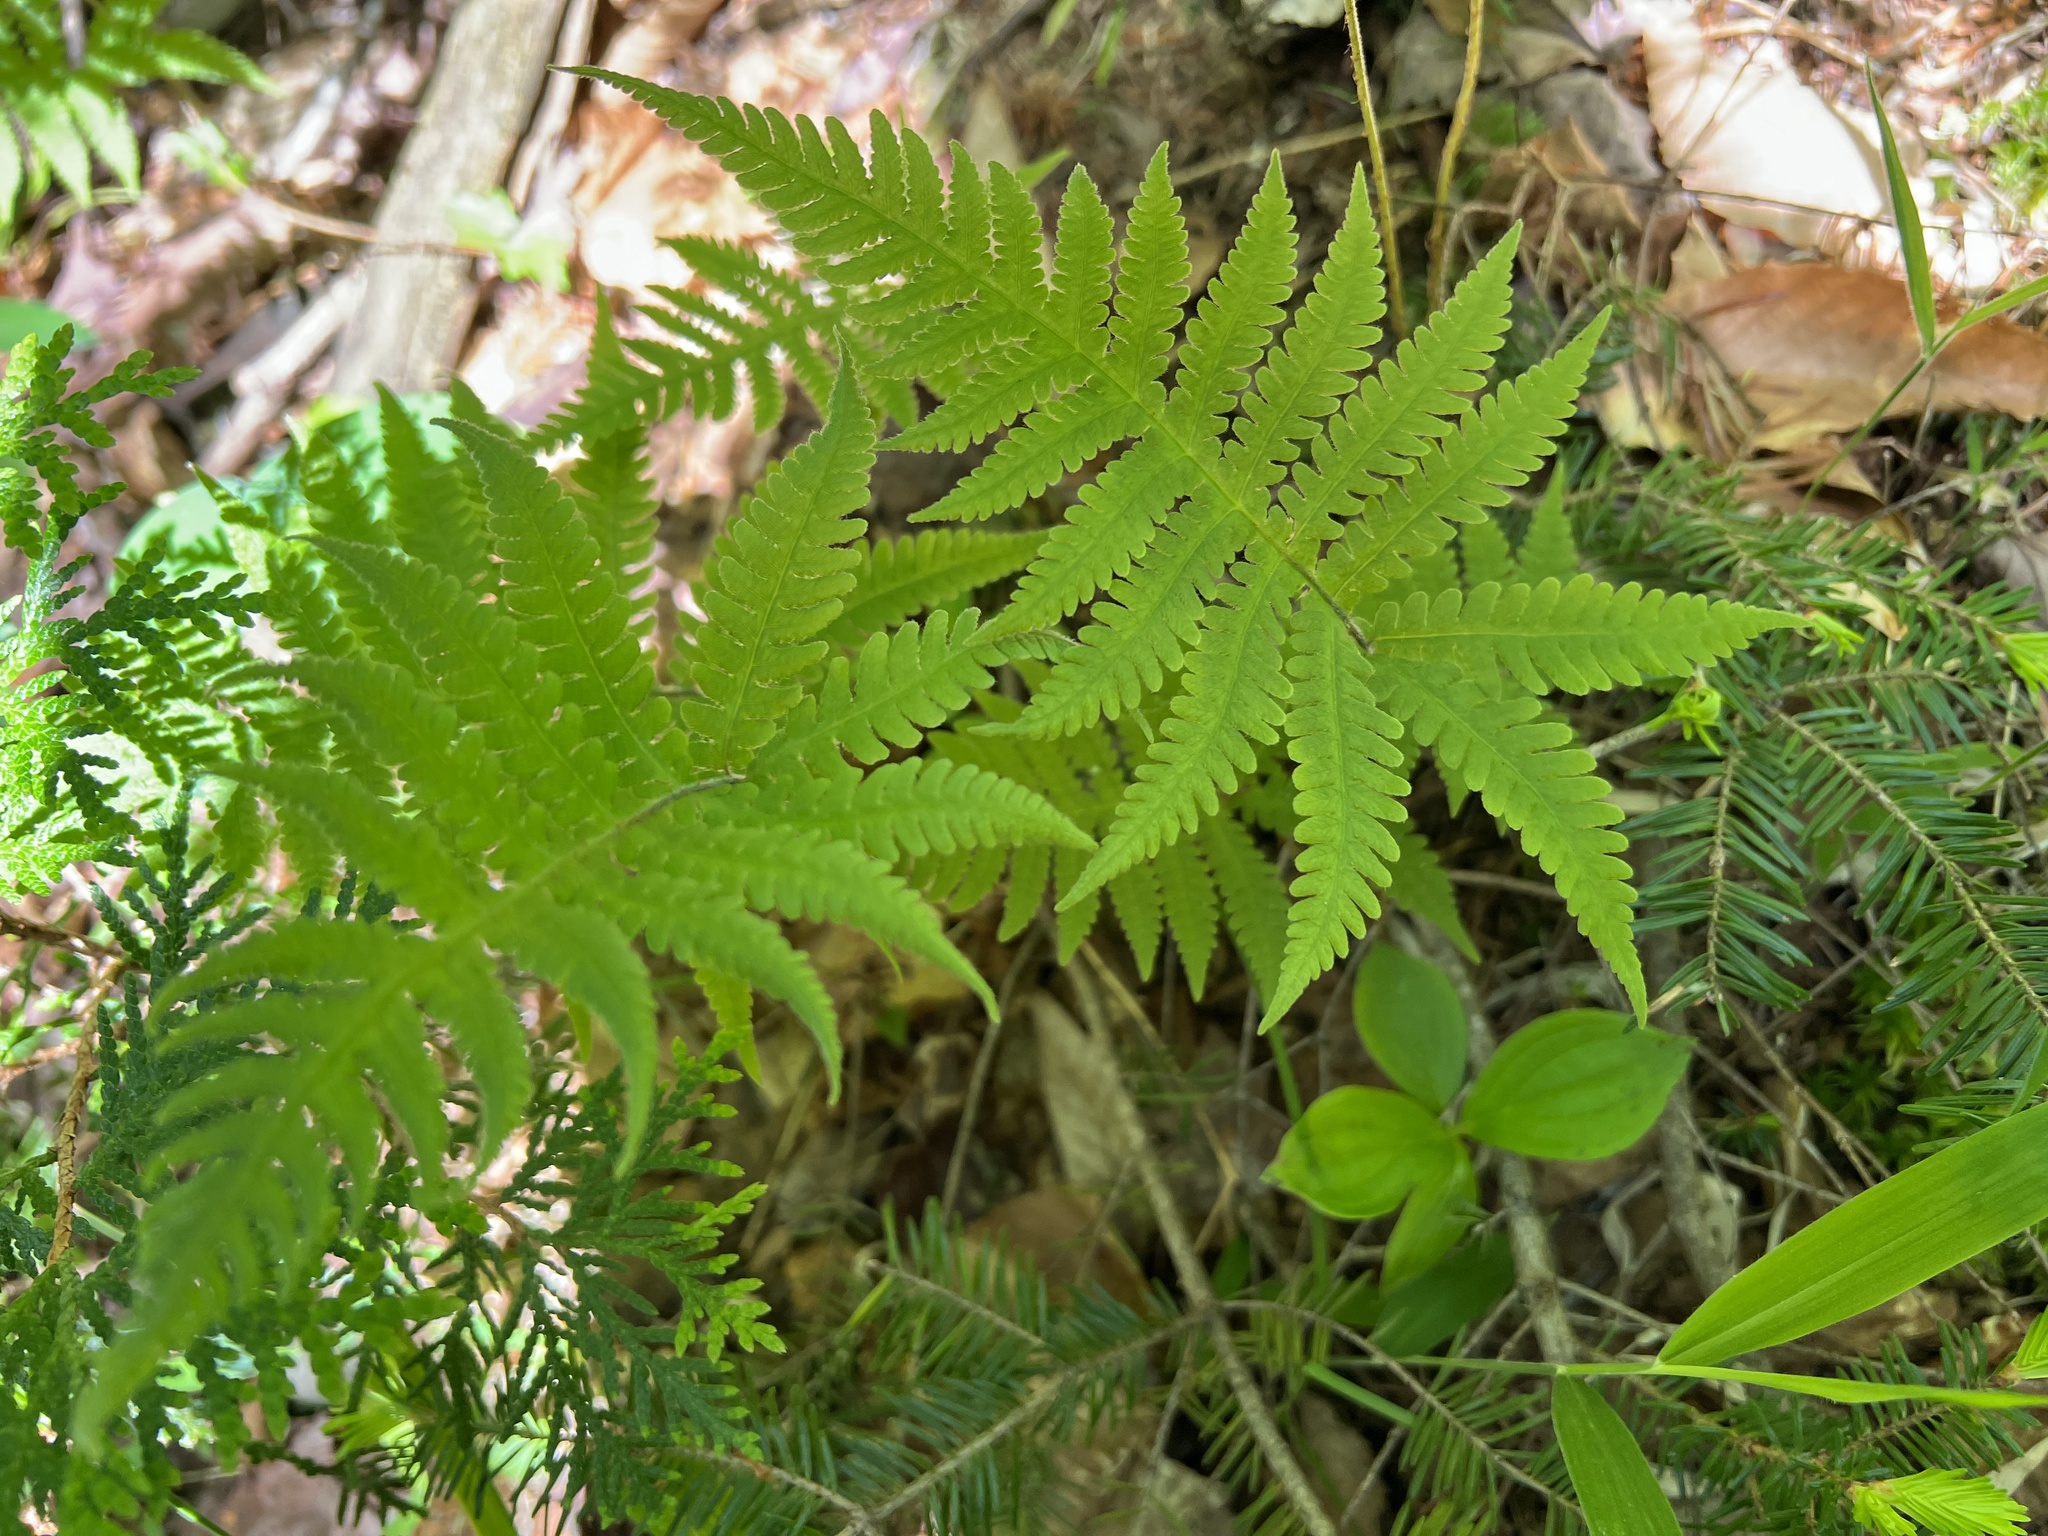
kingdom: Plantae
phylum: Tracheophyta
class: Polypodiopsida
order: Polypodiales
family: Thelypteridaceae
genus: Phegopteris
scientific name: Phegopteris connectilis
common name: Beech fern
